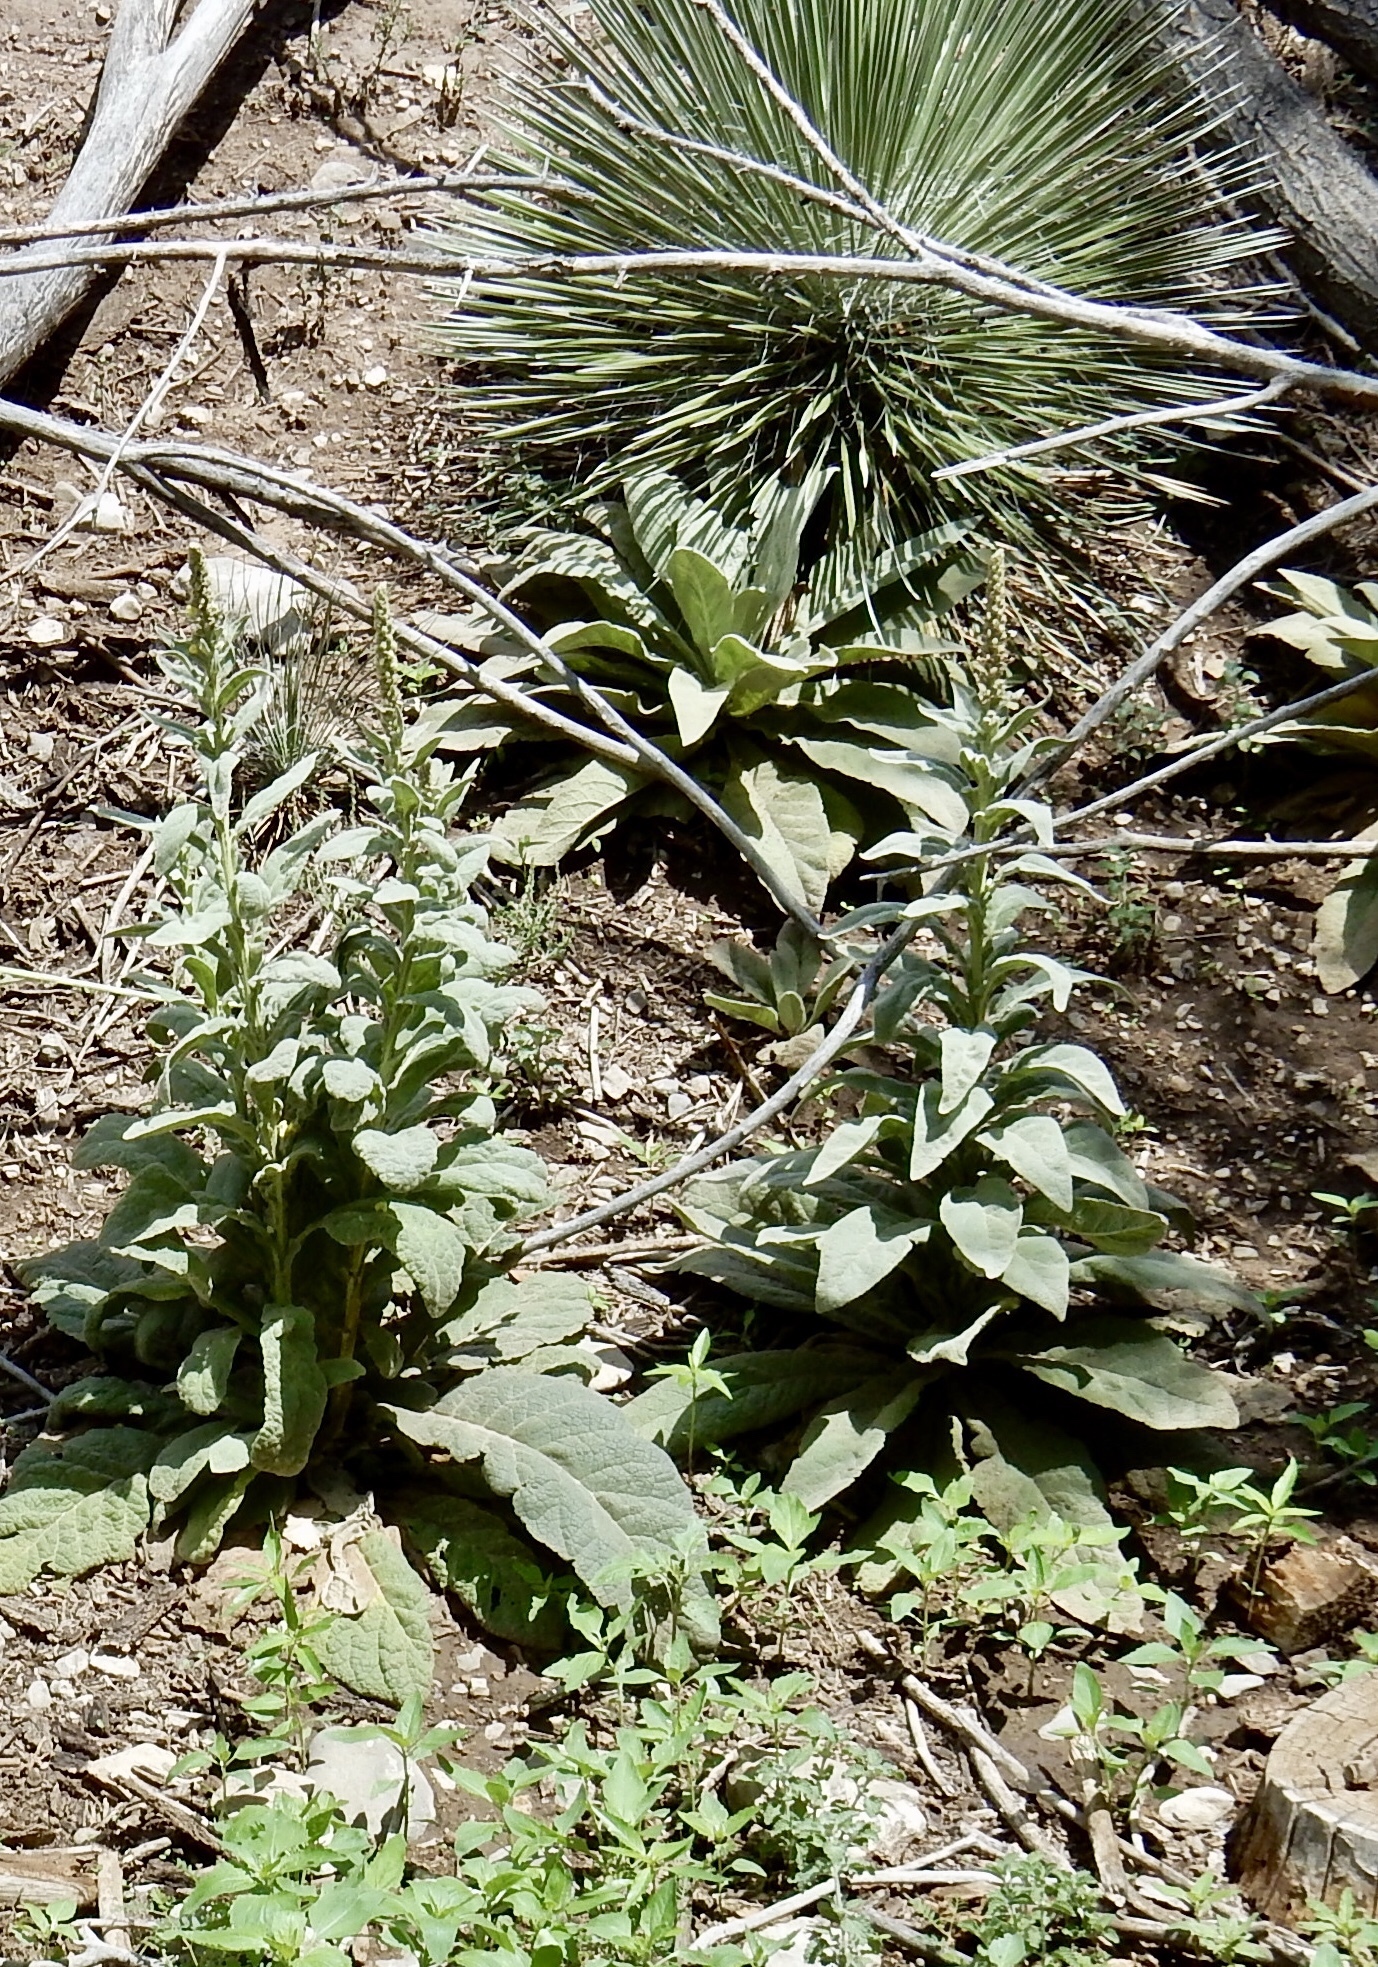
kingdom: Plantae
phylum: Tracheophyta
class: Magnoliopsida
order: Lamiales
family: Scrophulariaceae
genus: Verbascum
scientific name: Verbascum thapsus
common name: Common mullein
